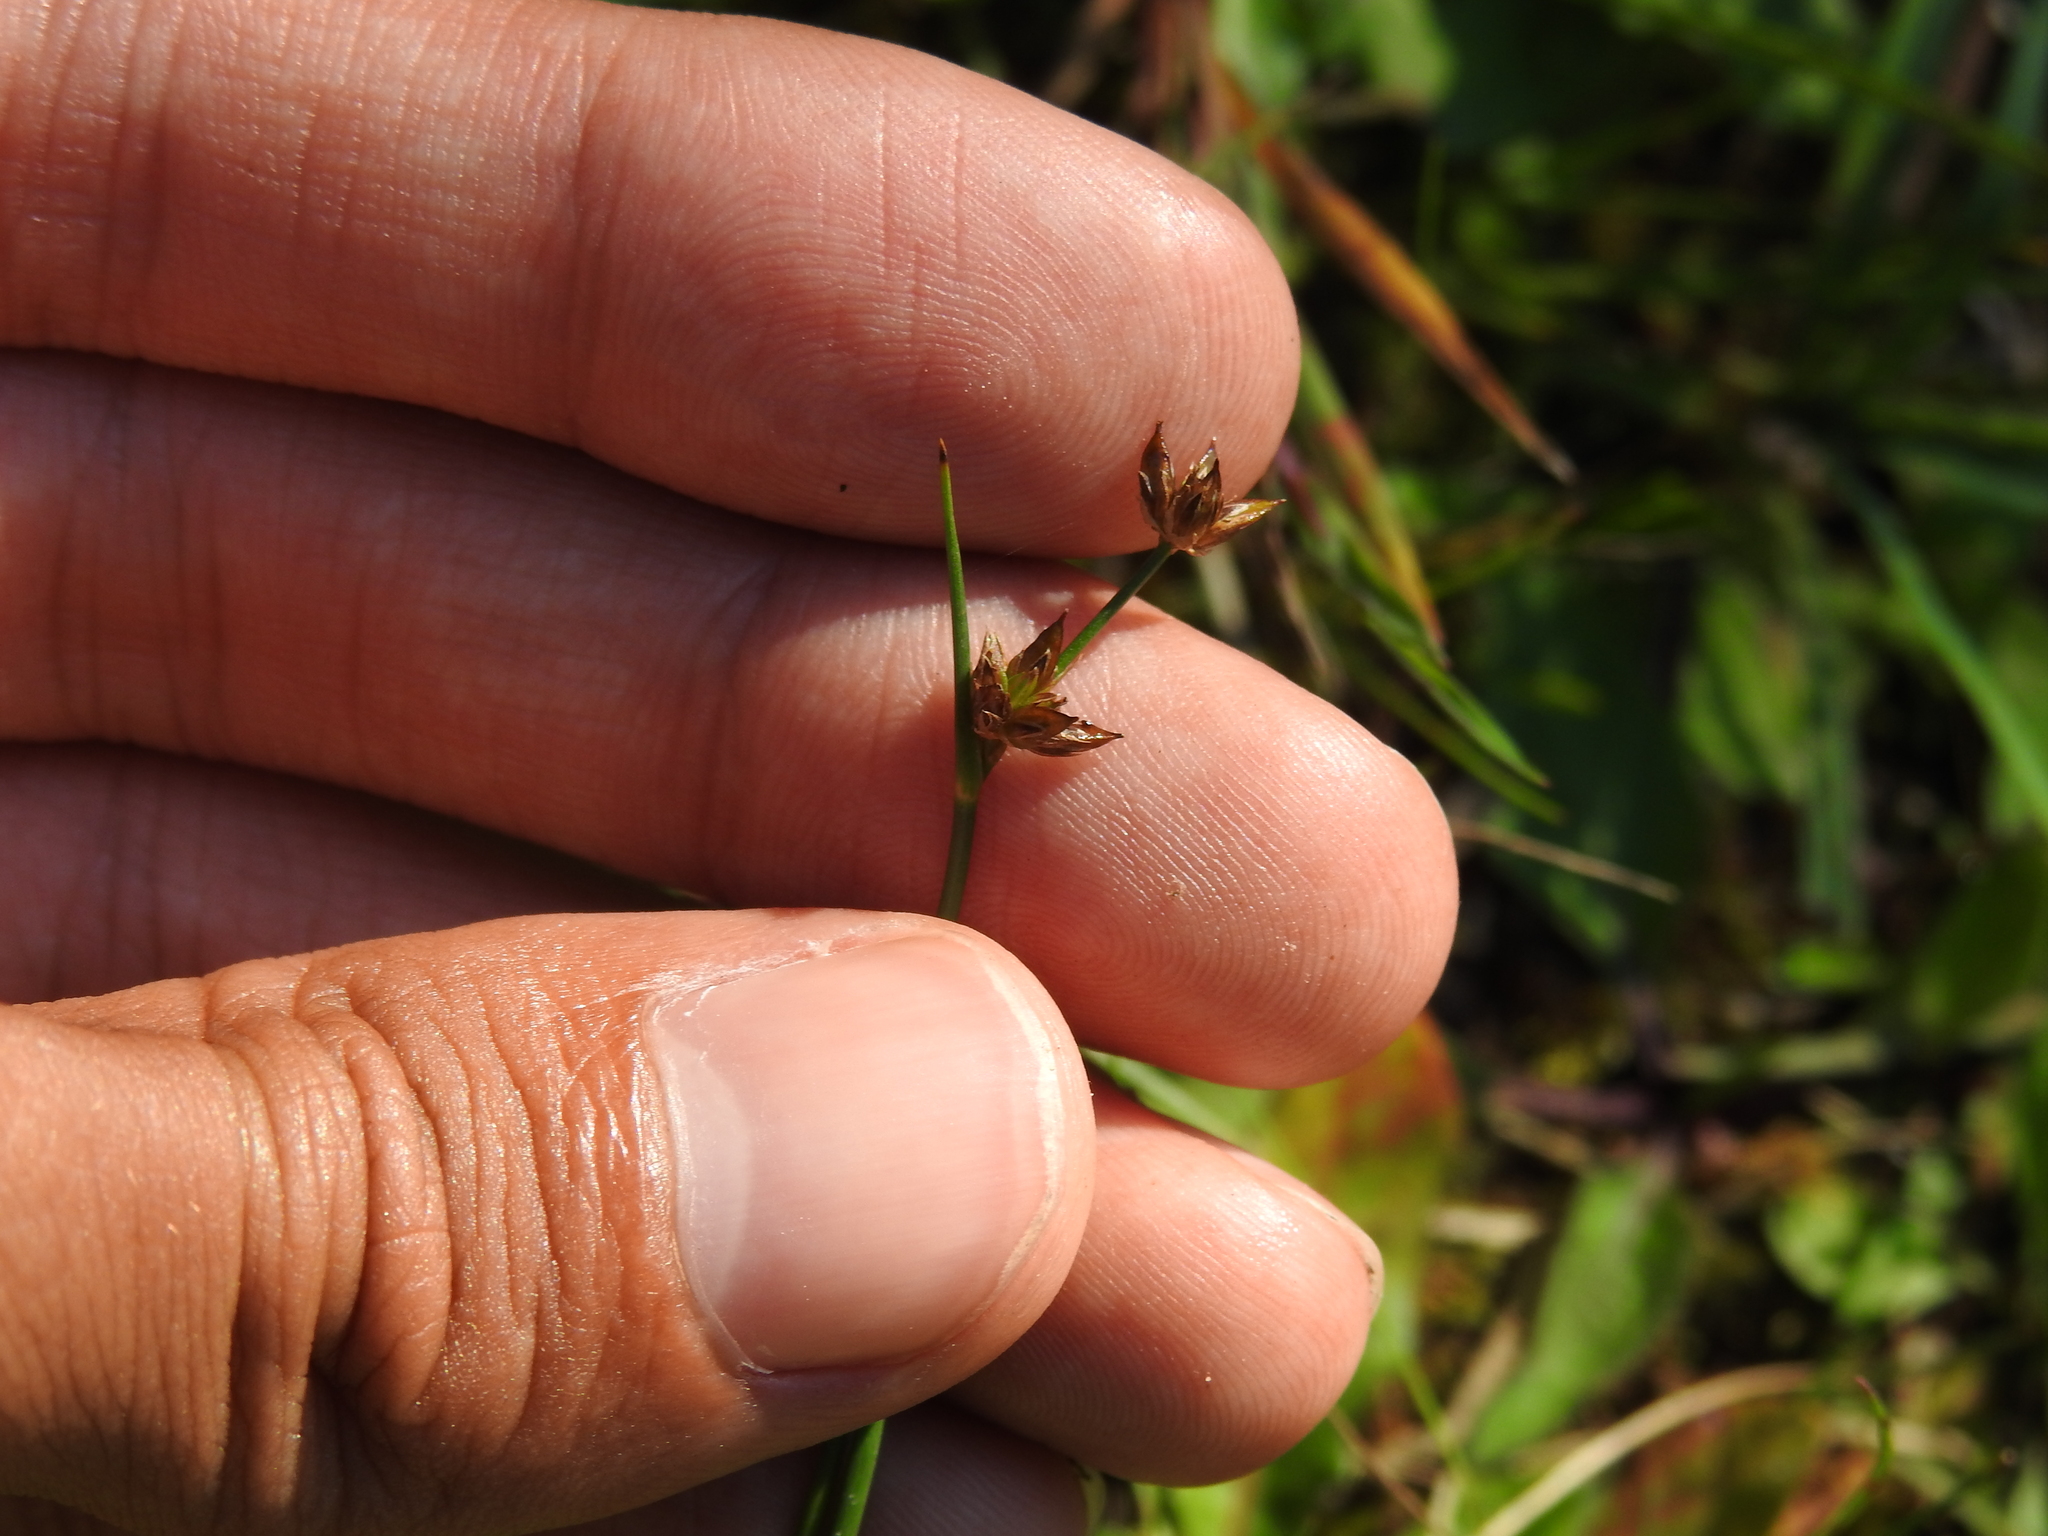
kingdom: Plantae
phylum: Tracheophyta
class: Liliopsida
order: Poales
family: Juncaceae
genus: Juncus
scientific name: Juncus articulatus
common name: Jointed rush
